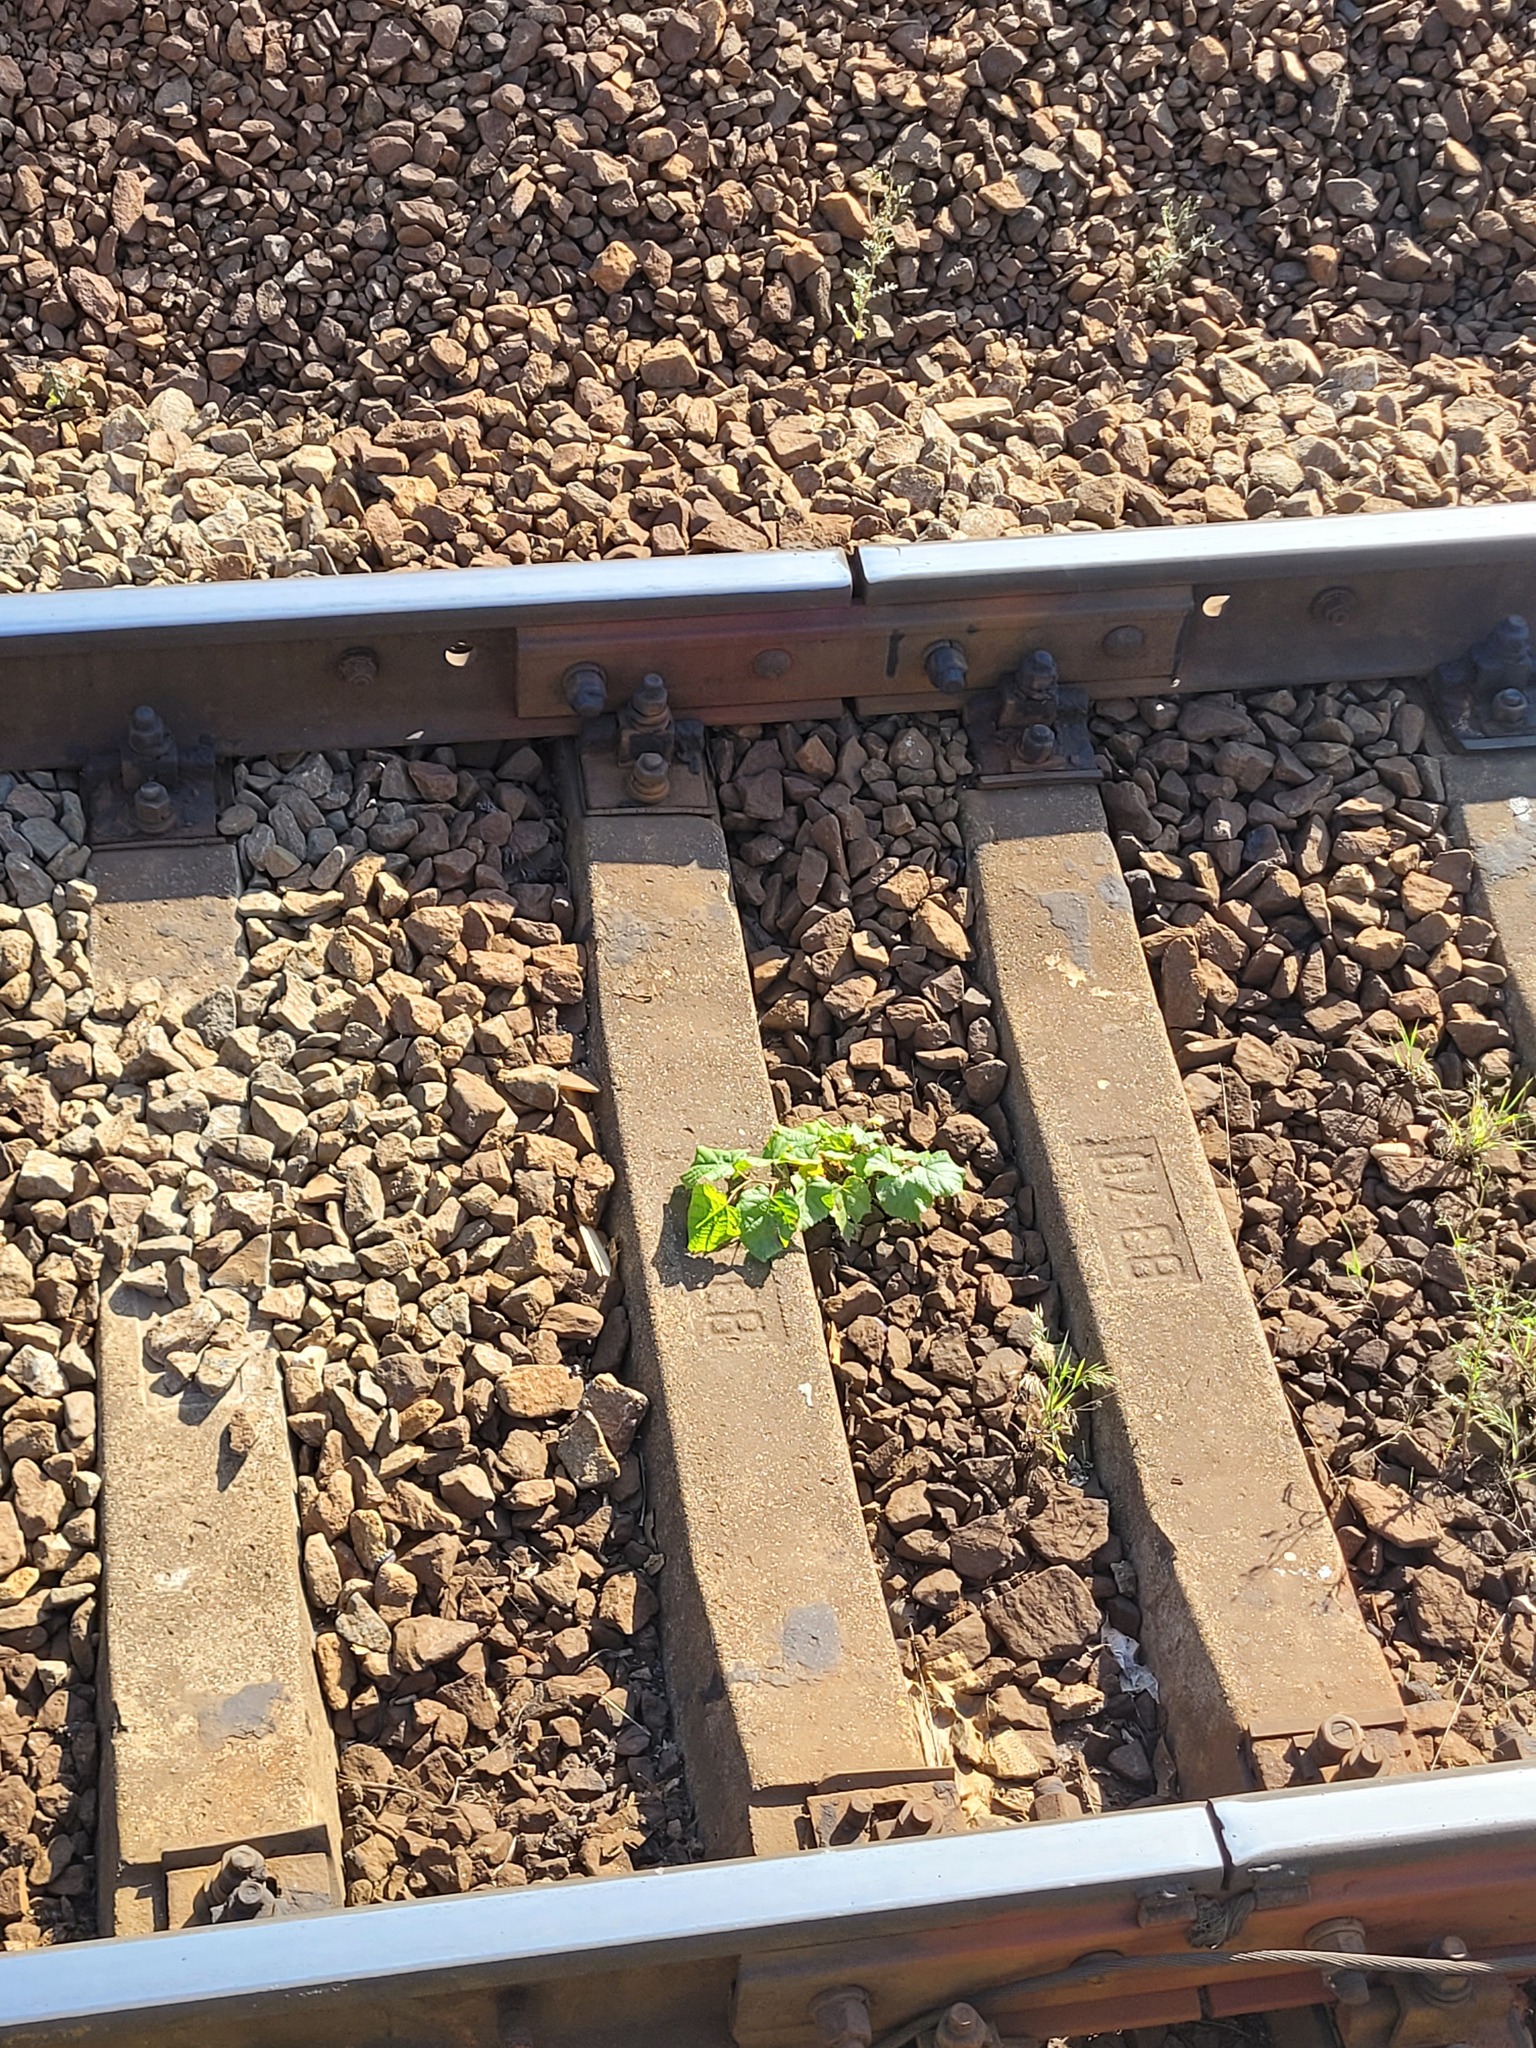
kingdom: Plantae
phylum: Tracheophyta
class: Magnoliopsida
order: Malvales
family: Malvaceae
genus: Tilia
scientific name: Tilia cordata
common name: Small-leaved lime
